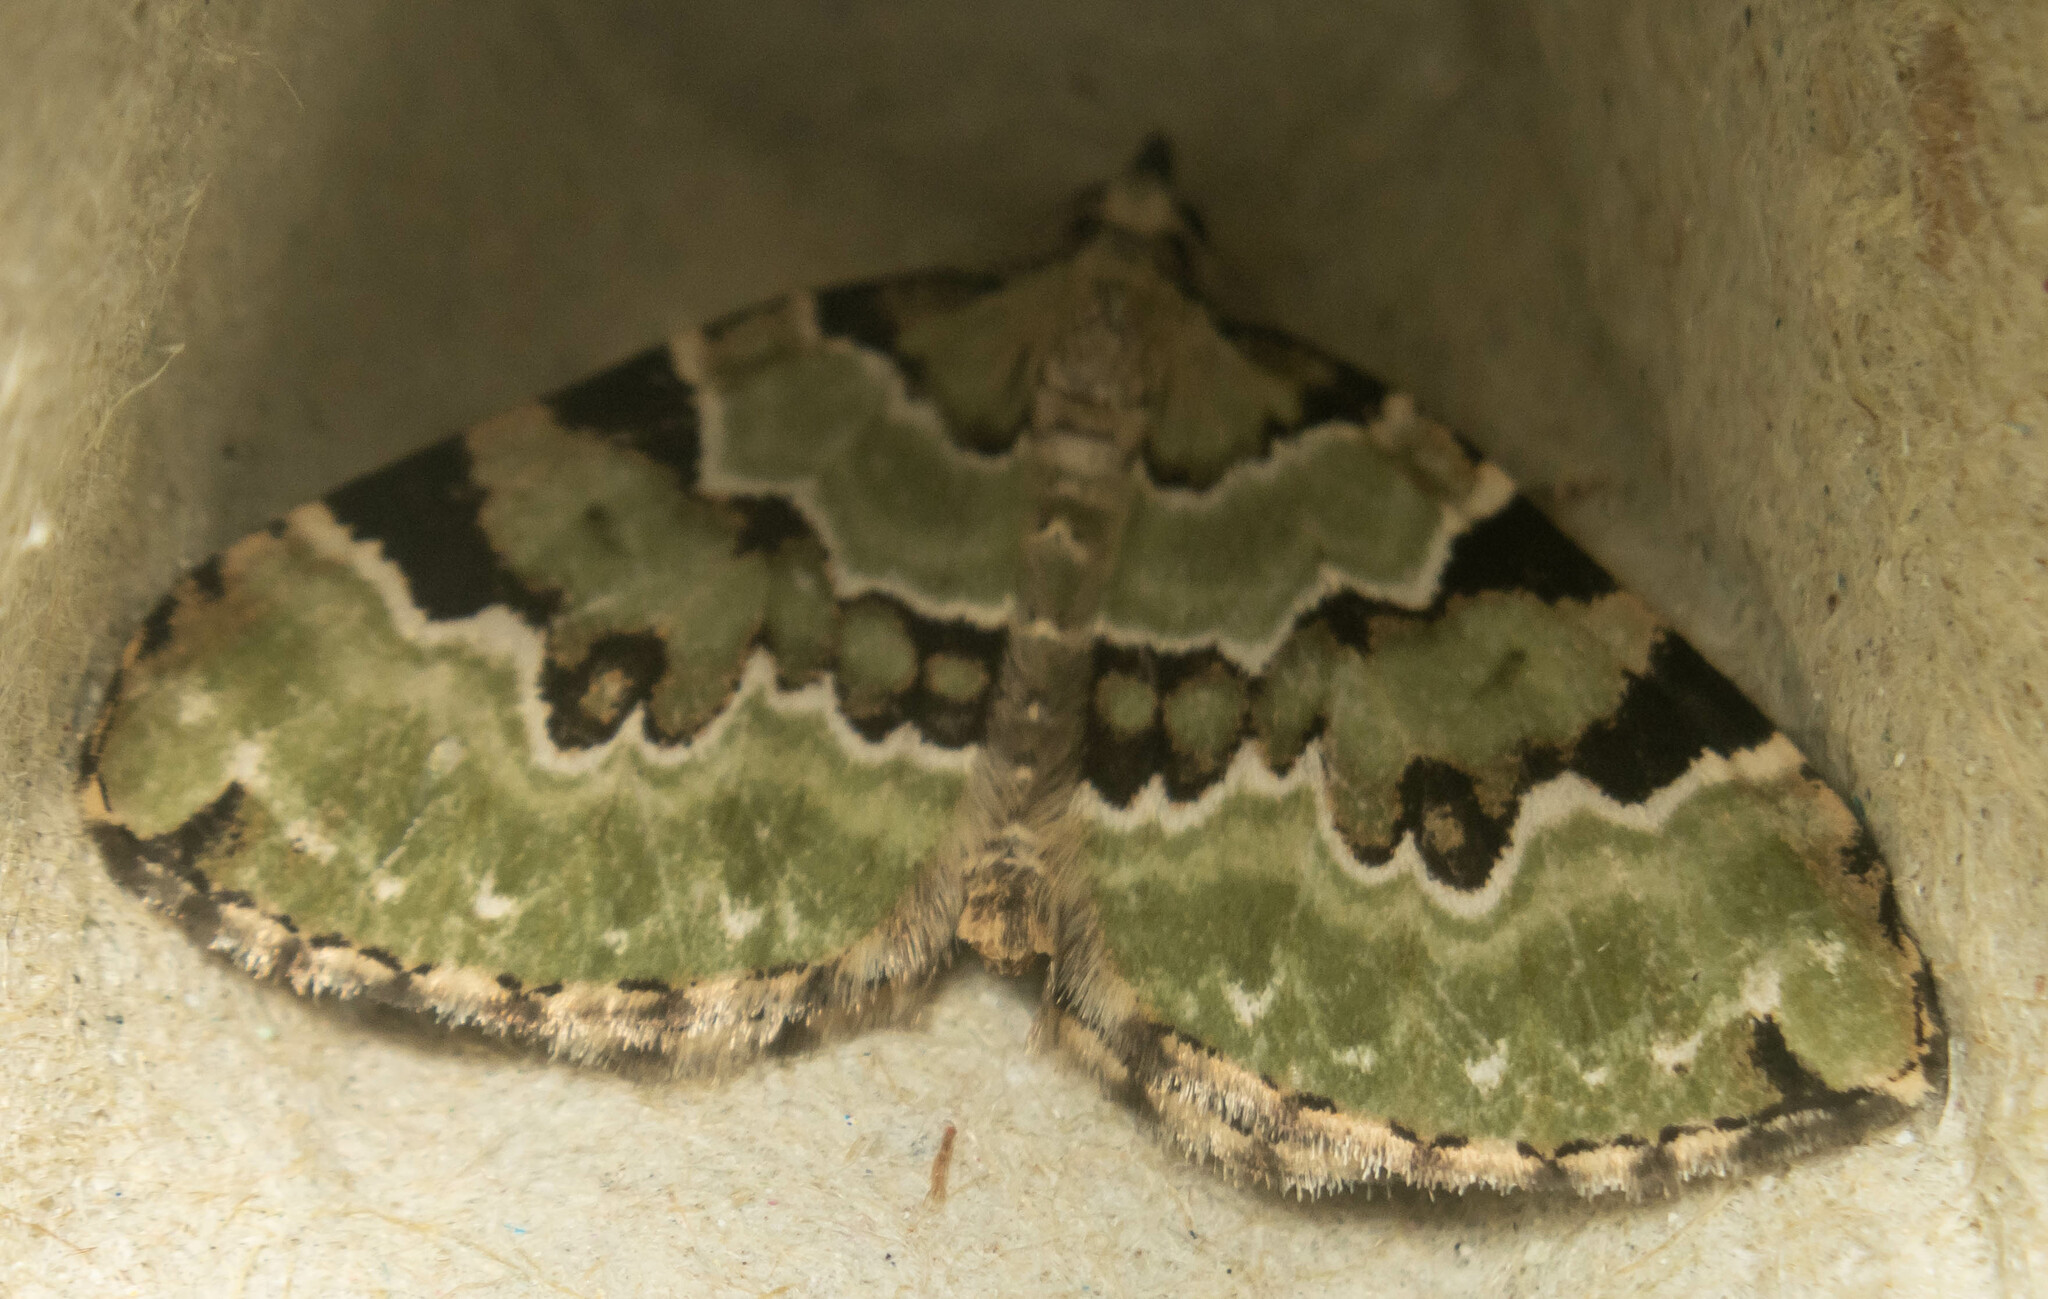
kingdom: Animalia
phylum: Arthropoda
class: Insecta
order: Lepidoptera
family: Geometridae
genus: Colostygia
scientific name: Colostygia pectinataria
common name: Green carpet
